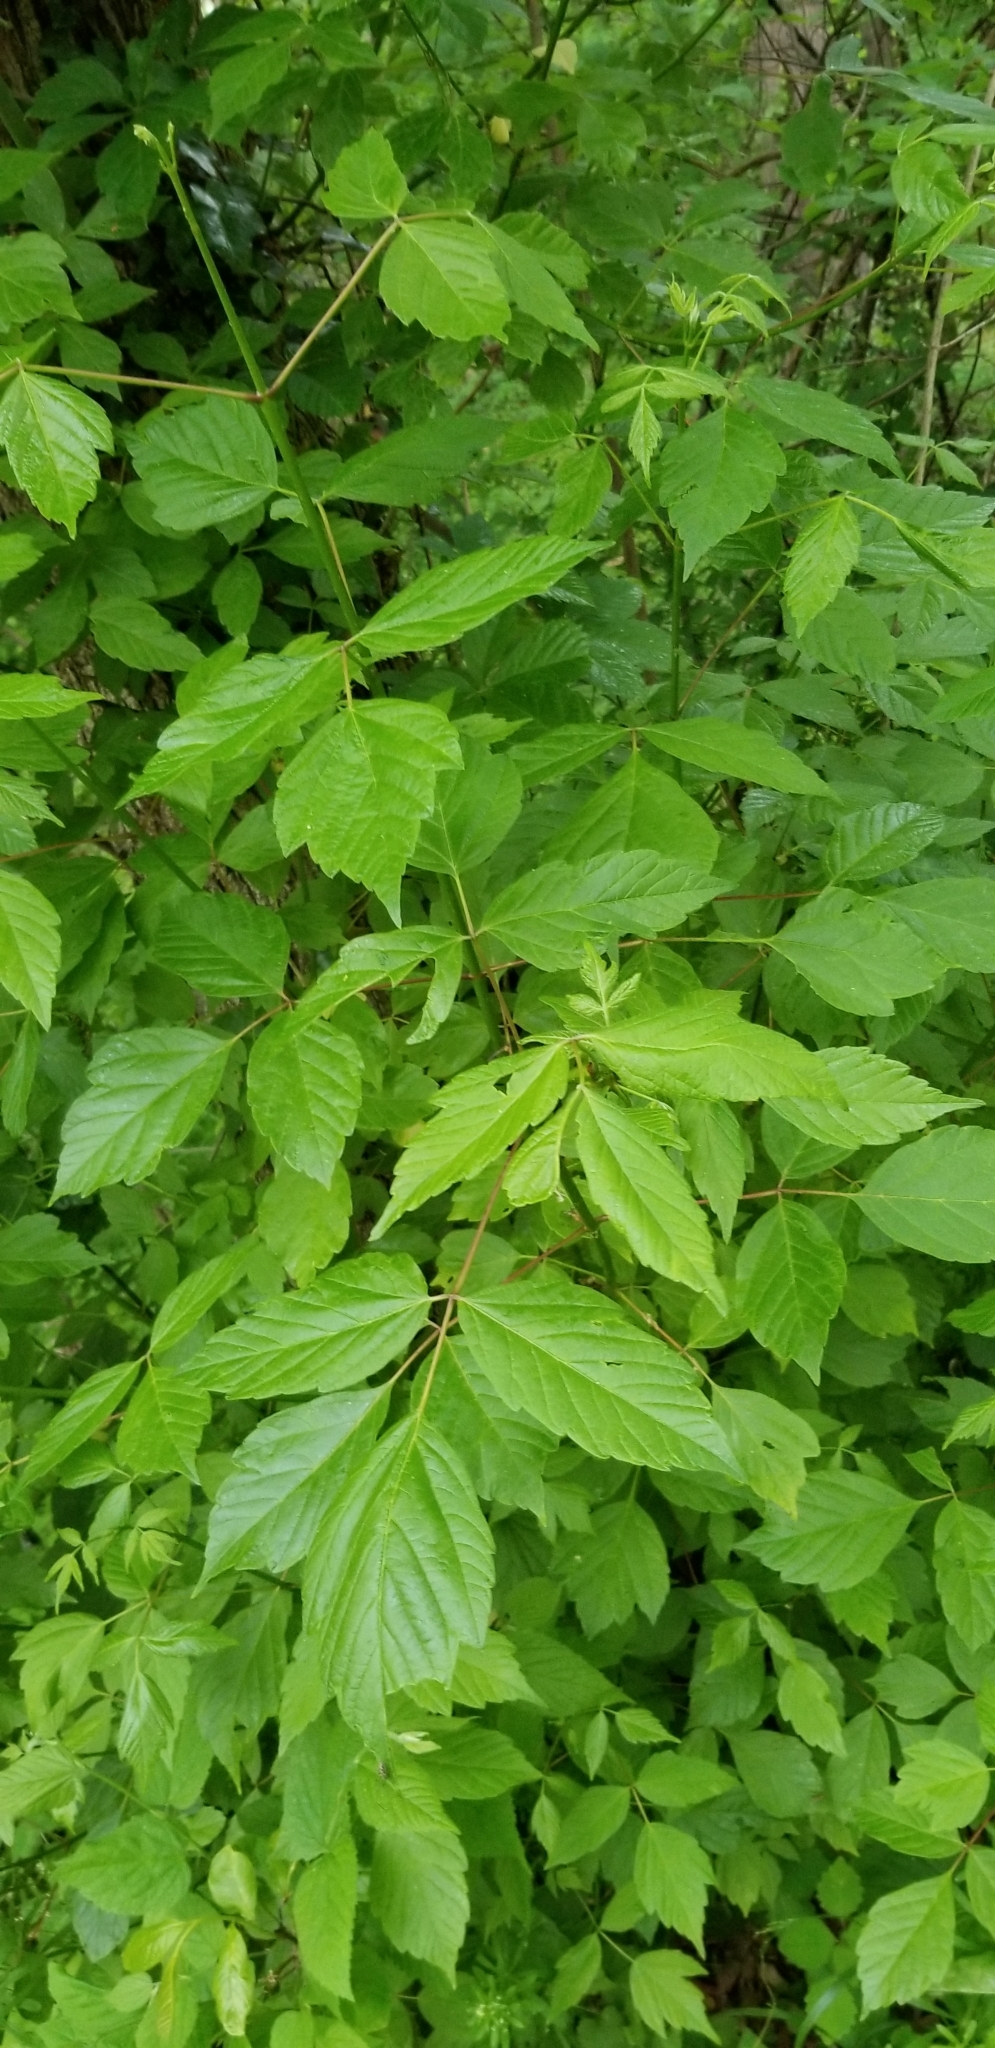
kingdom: Plantae
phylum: Tracheophyta
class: Magnoliopsida
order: Sapindales
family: Sapindaceae
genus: Acer
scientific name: Acer negundo
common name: Ashleaf maple
